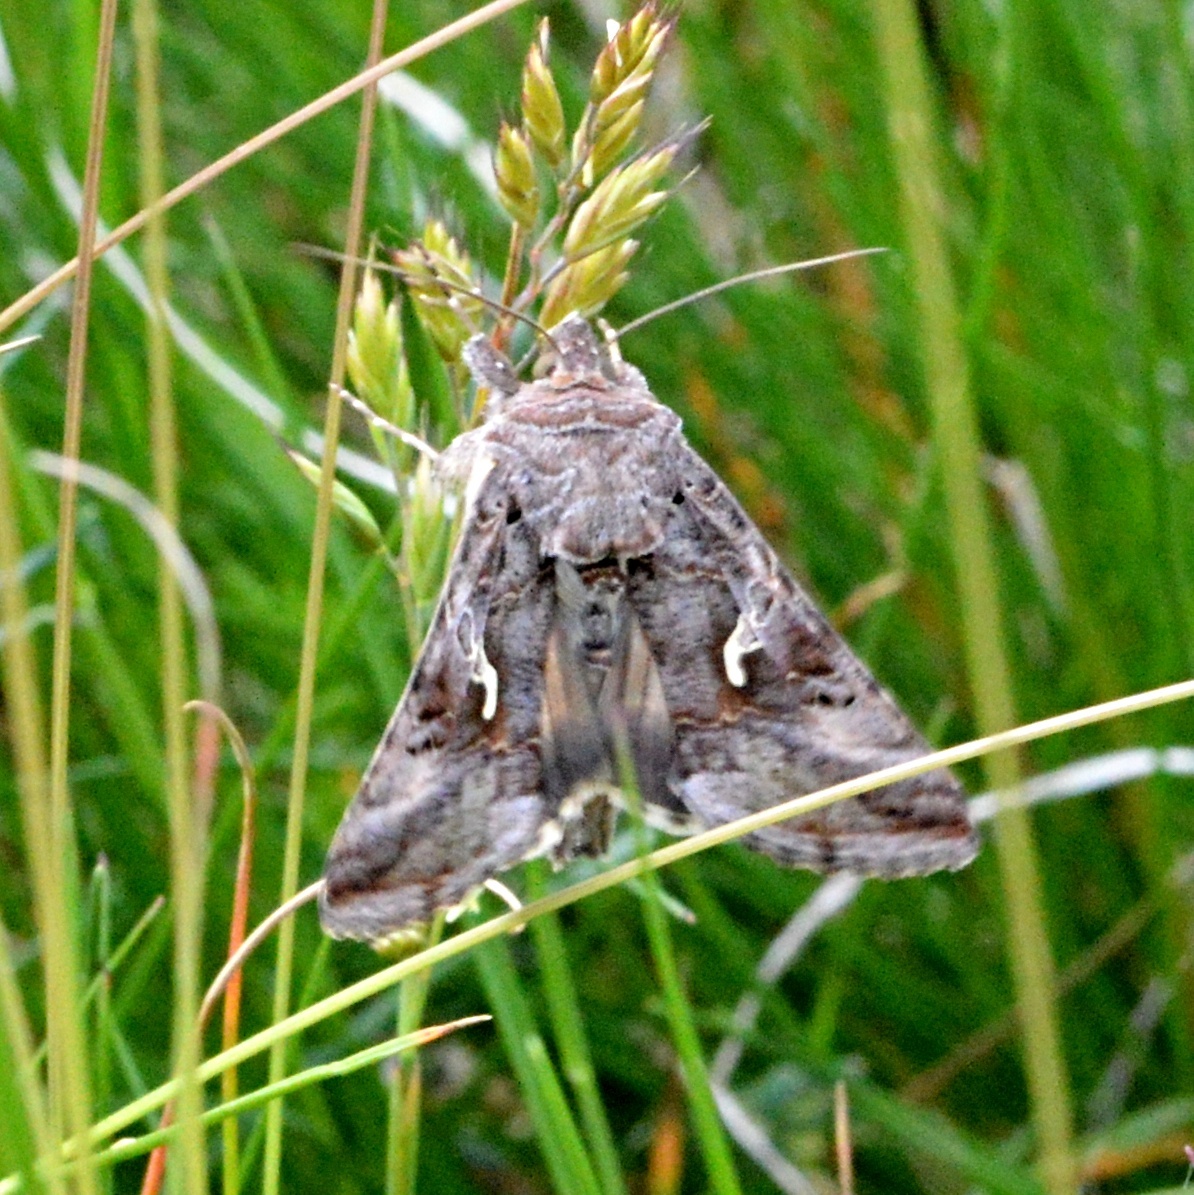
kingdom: Animalia
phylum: Arthropoda
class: Insecta
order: Lepidoptera
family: Noctuidae
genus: Autographa
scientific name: Autographa gamma
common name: Silver y
